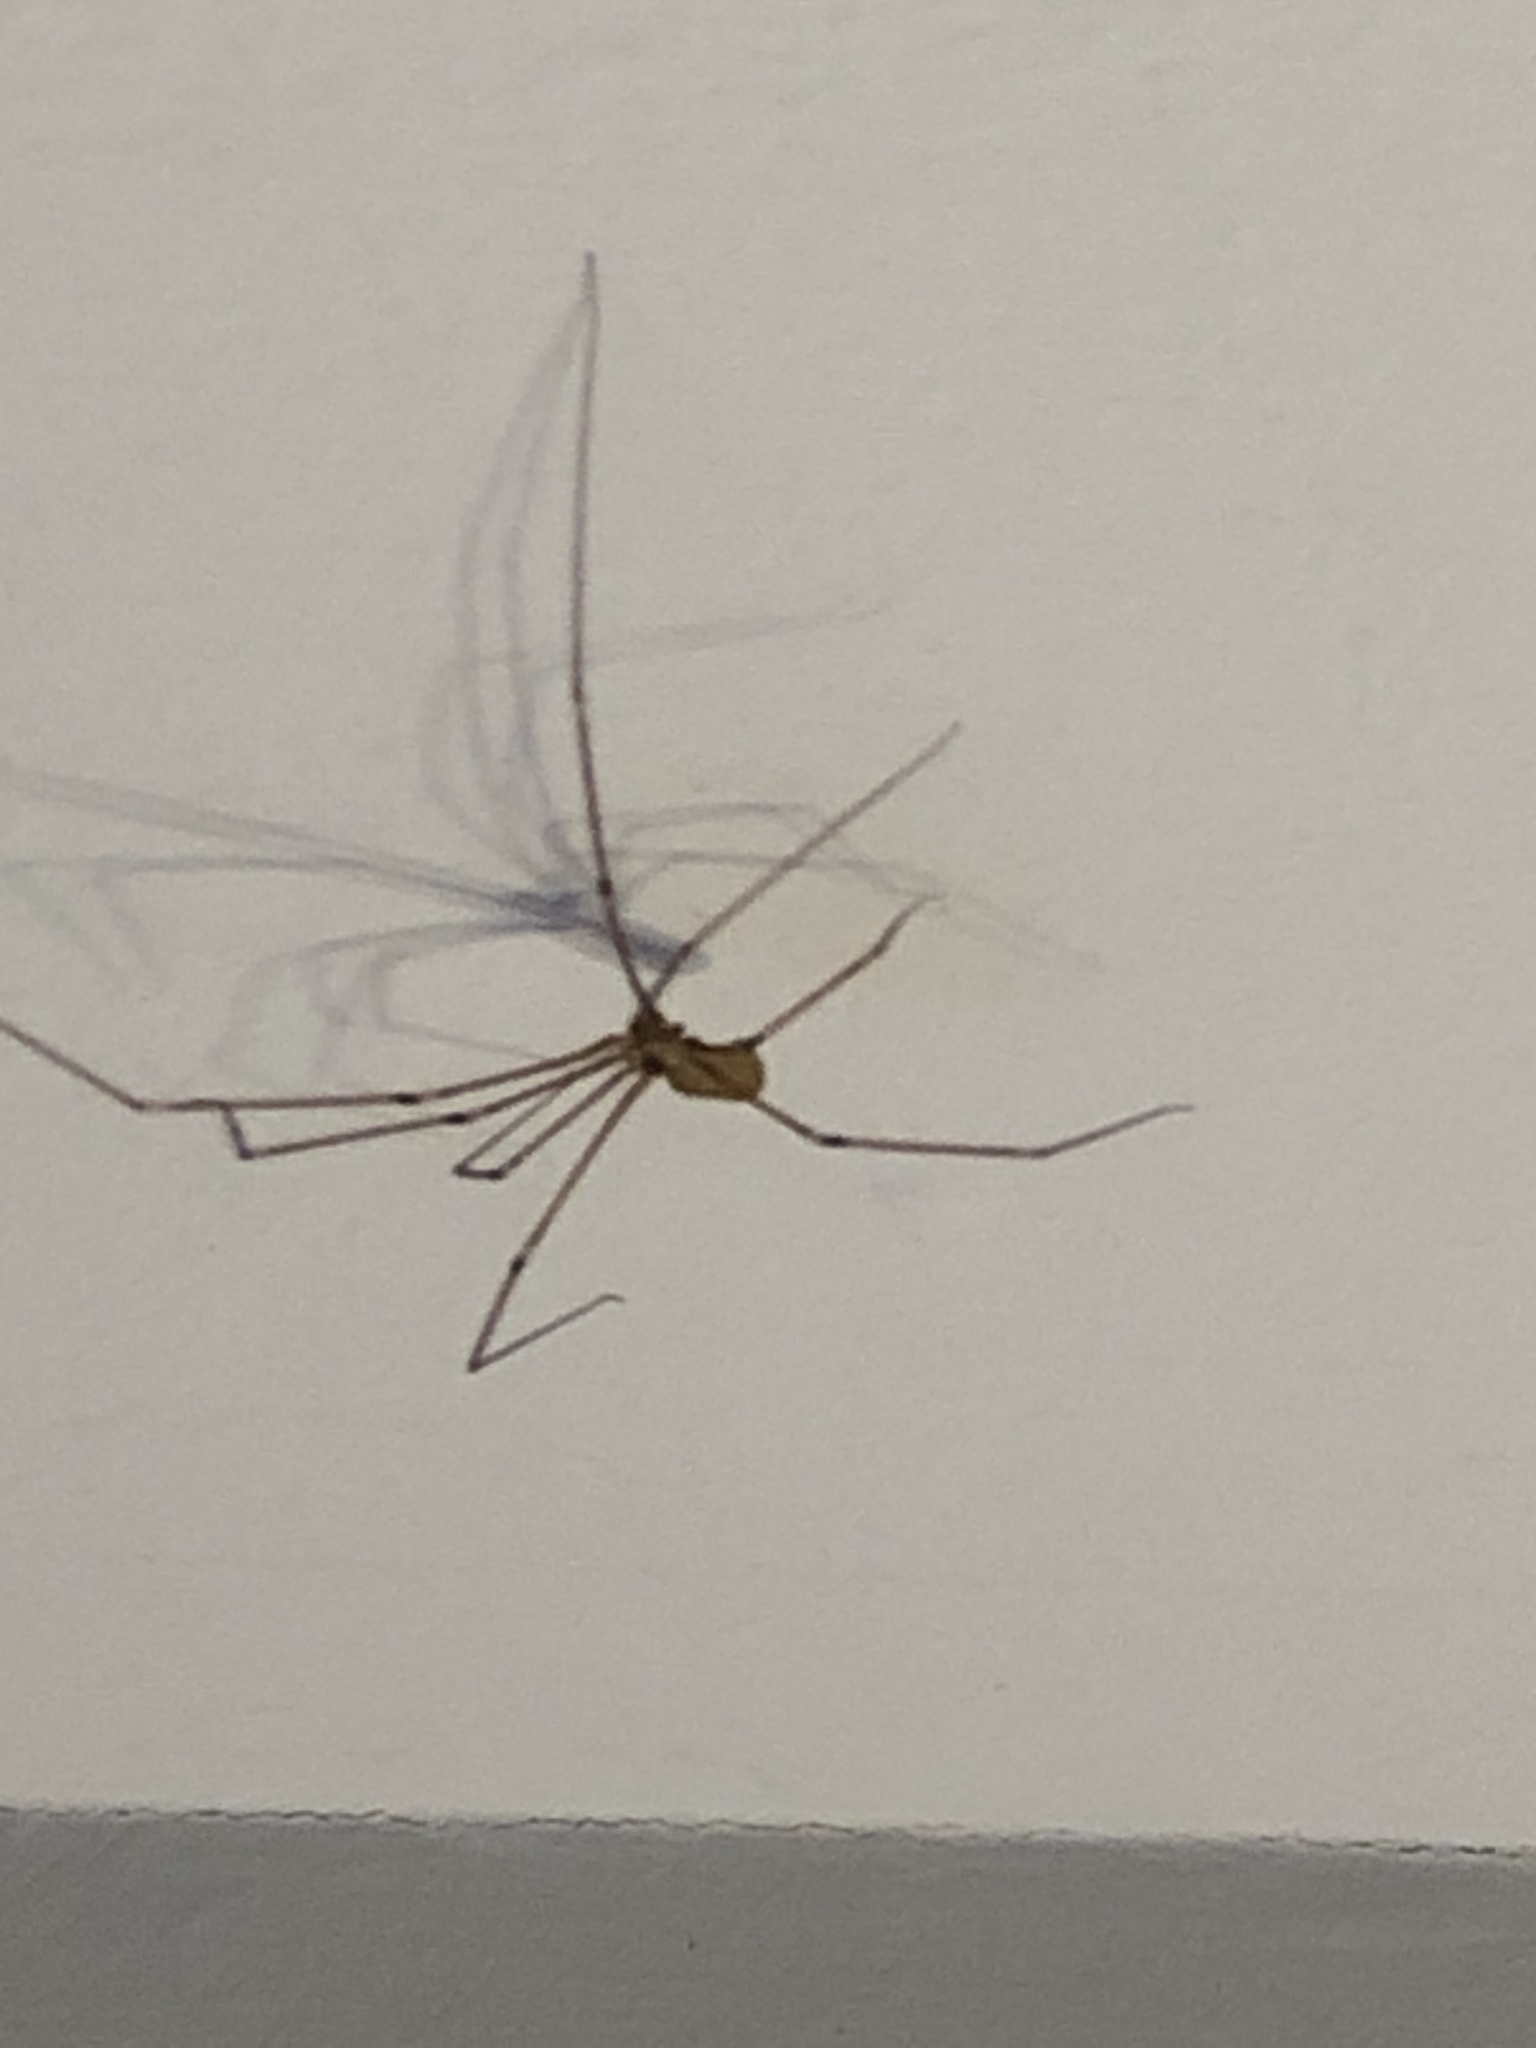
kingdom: Animalia
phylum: Arthropoda
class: Arachnida
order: Araneae
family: Pholcidae
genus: Pholcus
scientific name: Pholcus phalangioides
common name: Longbodied cellar spider
